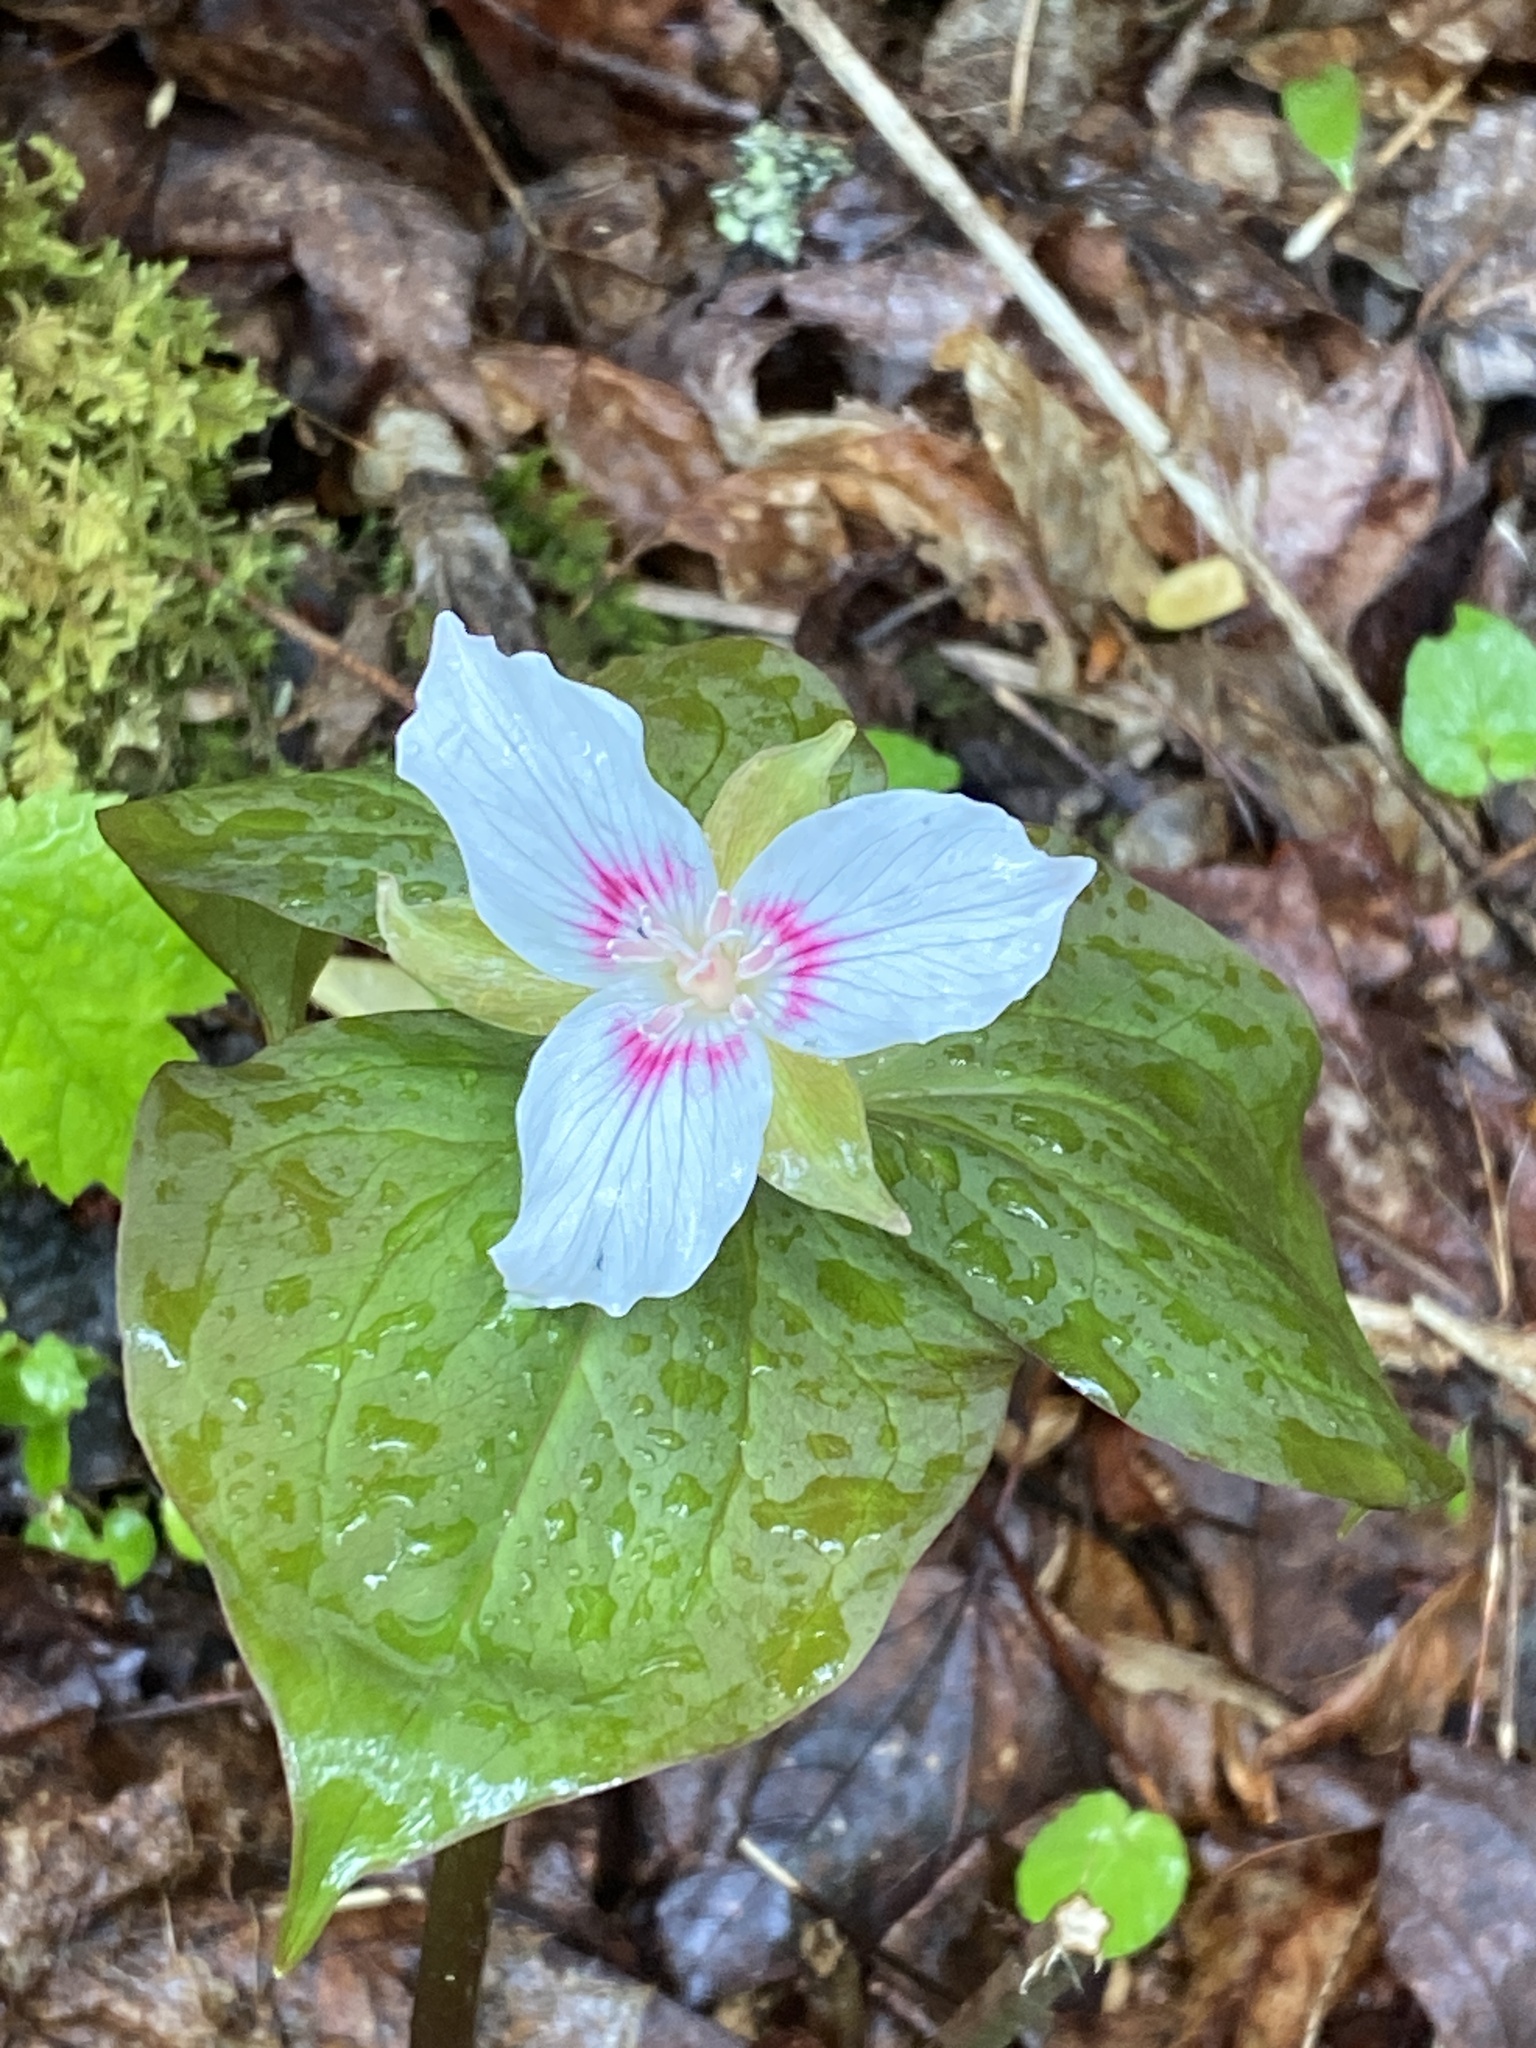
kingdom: Plantae
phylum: Tracheophyta
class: Liliopsida
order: Liliales
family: Melanthiaceae
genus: Trillium
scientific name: Trillium undulatum
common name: Paint trillium
